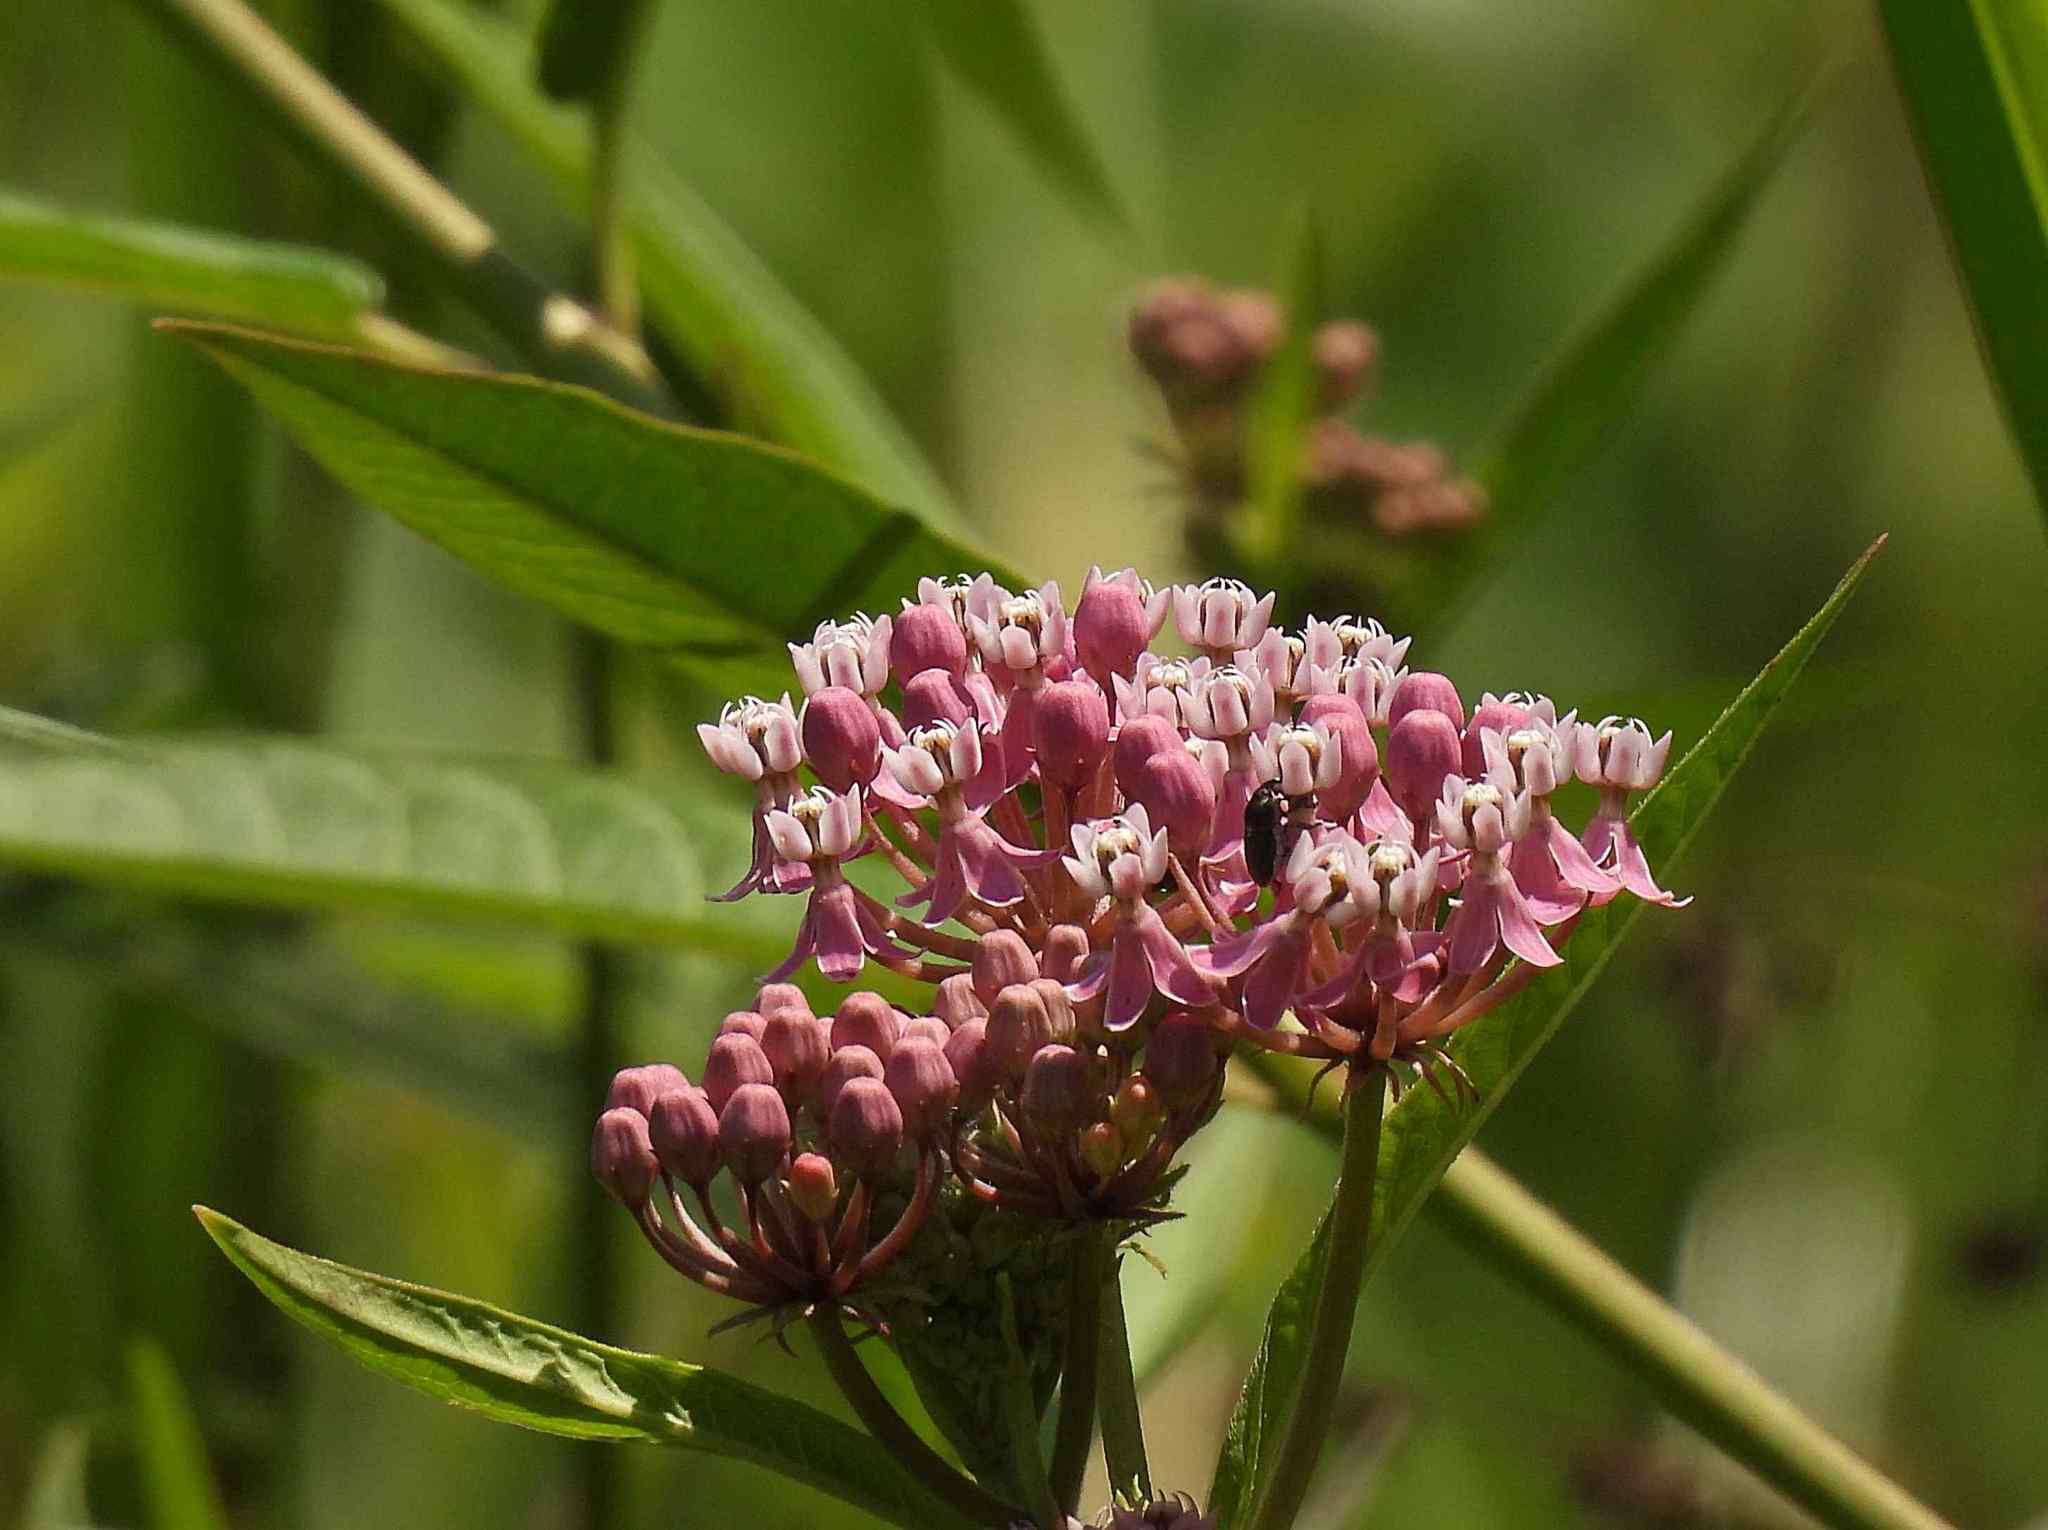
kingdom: Plantae
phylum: Tracheophyta
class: Magnoliopsida
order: Gentianales
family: Apocynaceae
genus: Asclepias
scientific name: Asclepias incarnata
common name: Swamp milkweed
